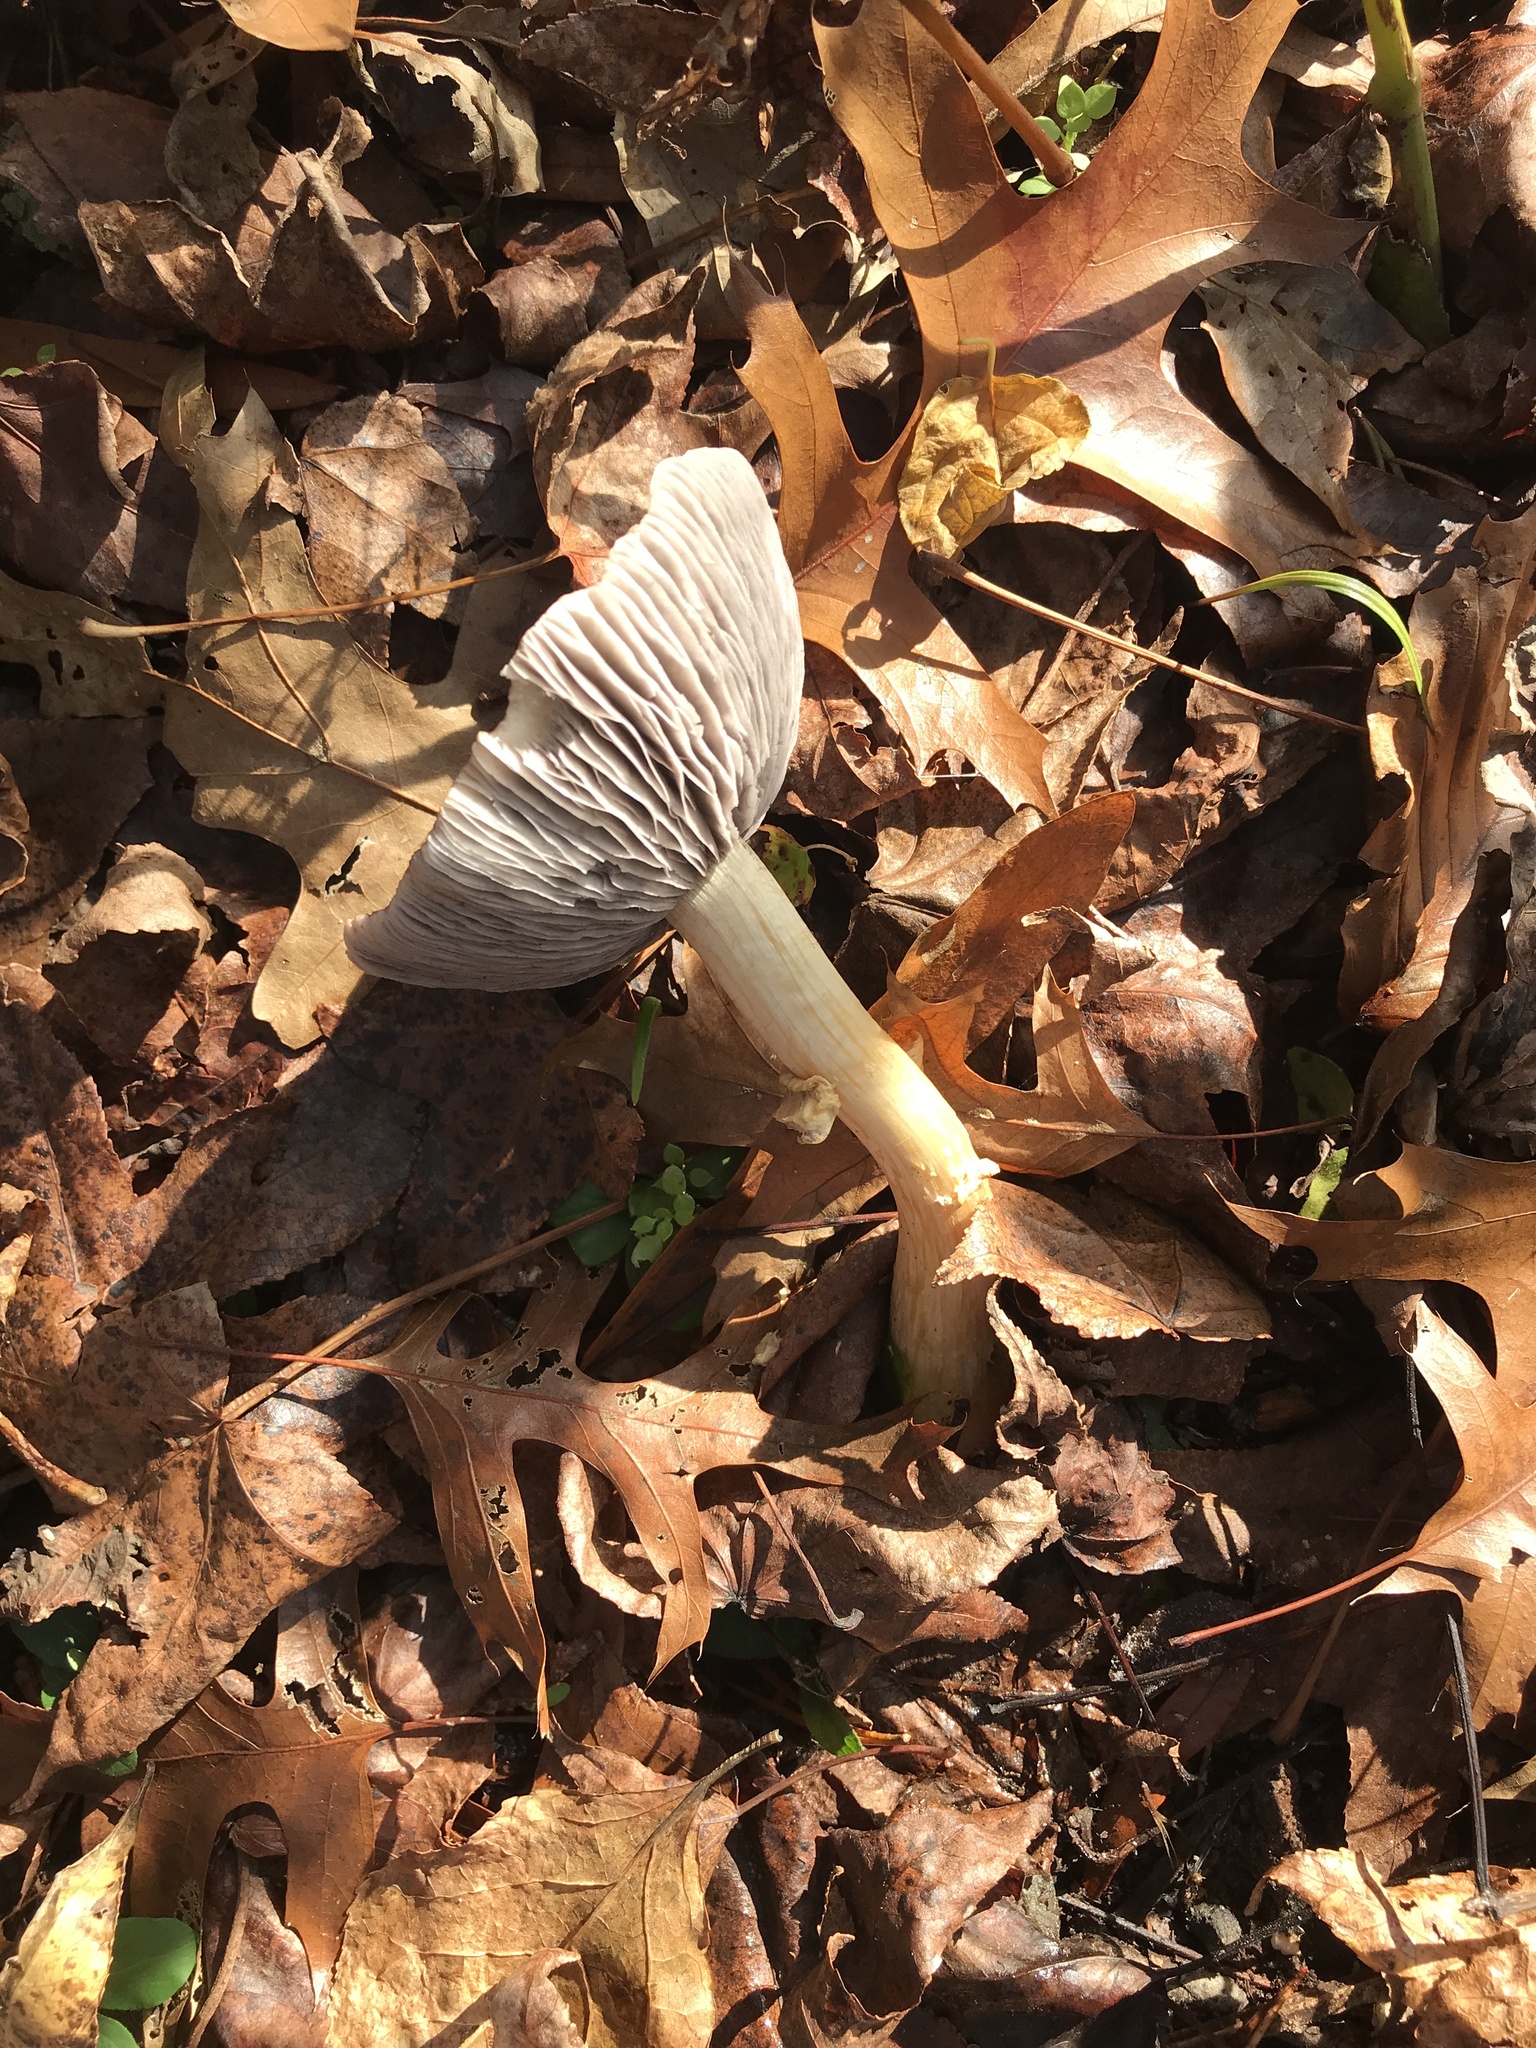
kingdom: Fungi
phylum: Basidiomycota
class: Agaricomycetes
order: Agaricales
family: Strophariaceae
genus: Stropharia
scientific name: Stropharia rugosoannulata
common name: Wine roundhead
